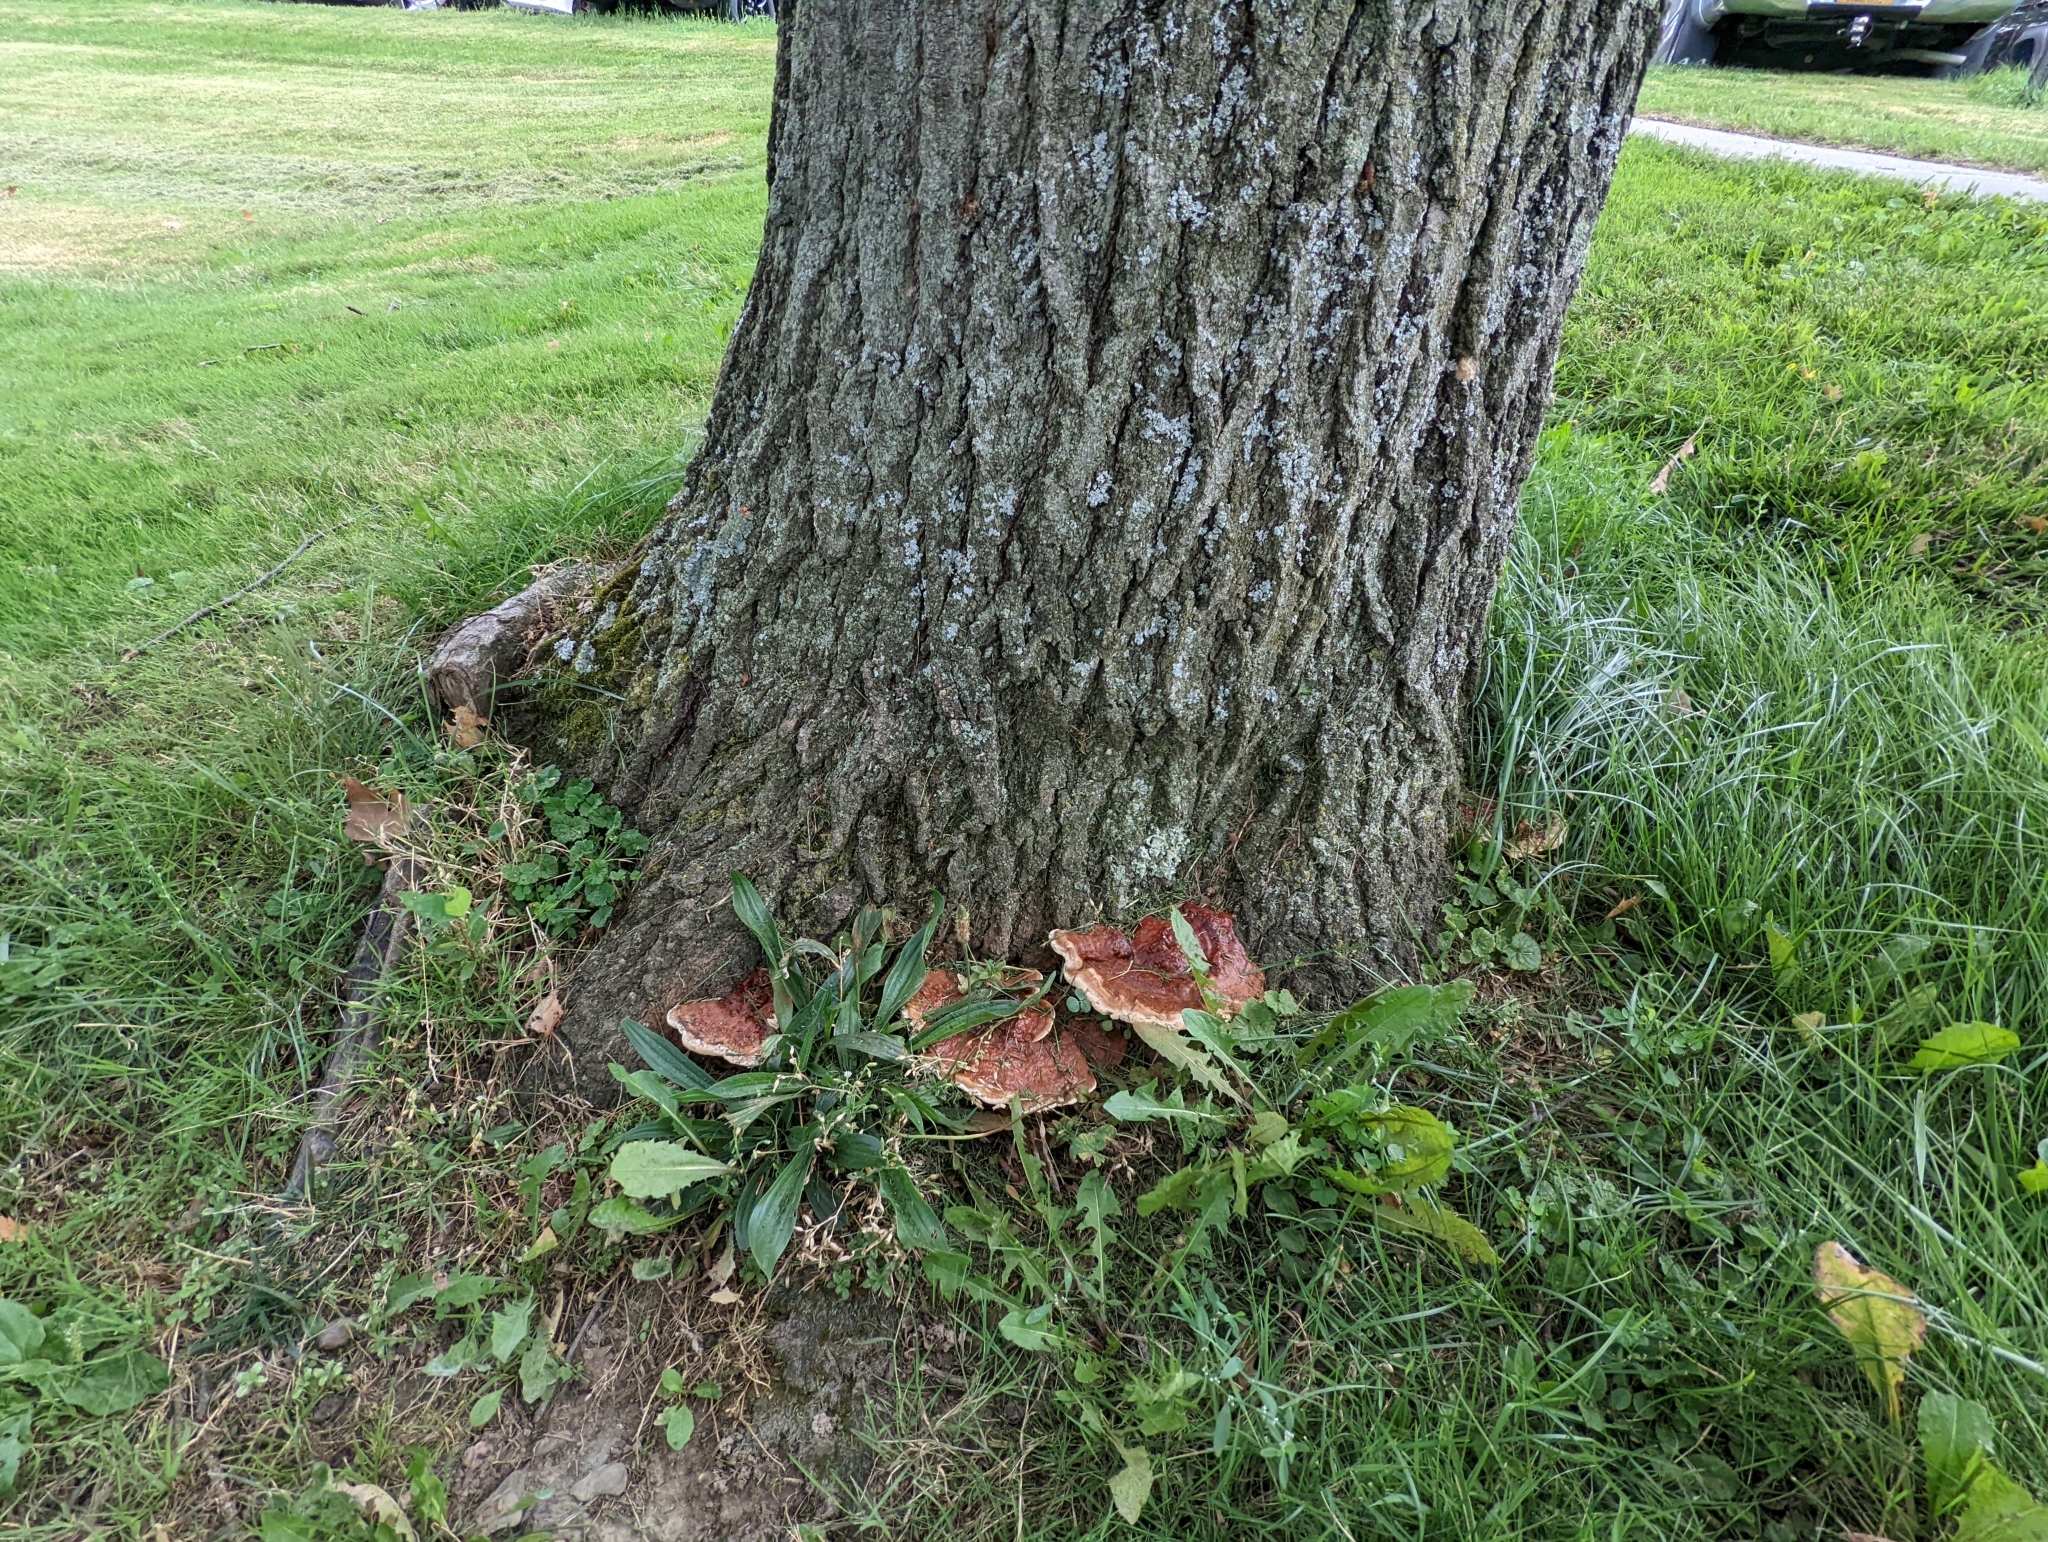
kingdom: Fungi
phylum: Basidiomycota
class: Agaricomycetes
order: Polyporales
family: Polyporaceae
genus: Ganoderma
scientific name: Ganoderma resinaceum
